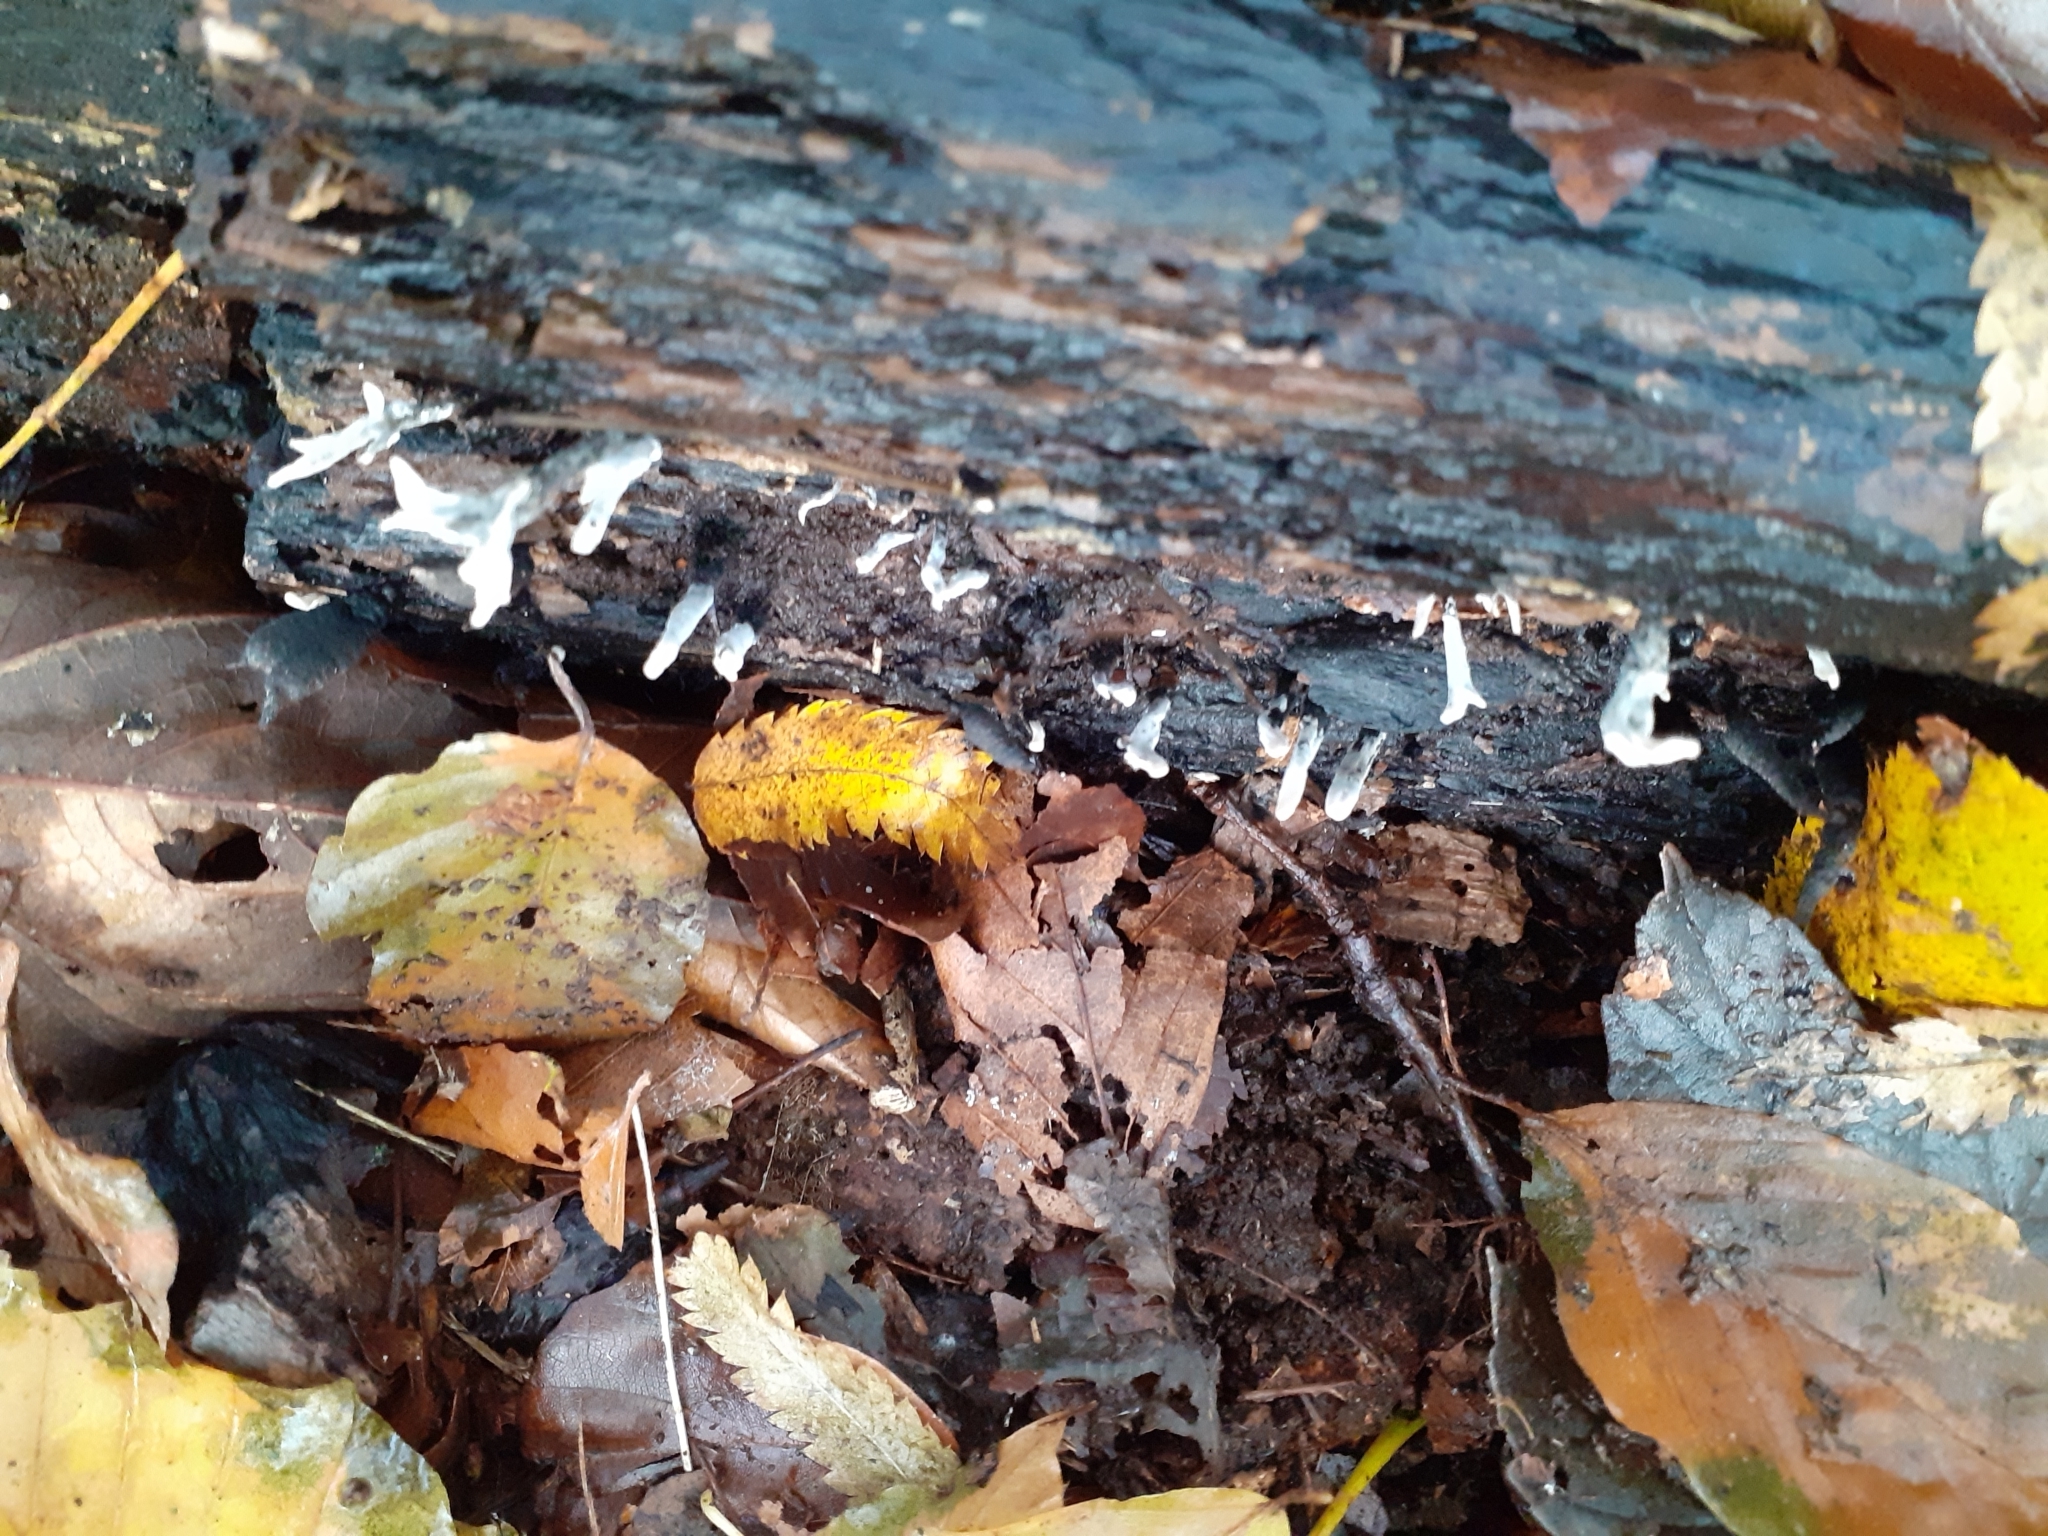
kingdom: Fungi
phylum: Ascomycota
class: Sordariomycetes
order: Xylariales
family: Xylariaceae
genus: Xylaria
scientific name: Xylaria hypoxylon
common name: Candle-snuff fungus
